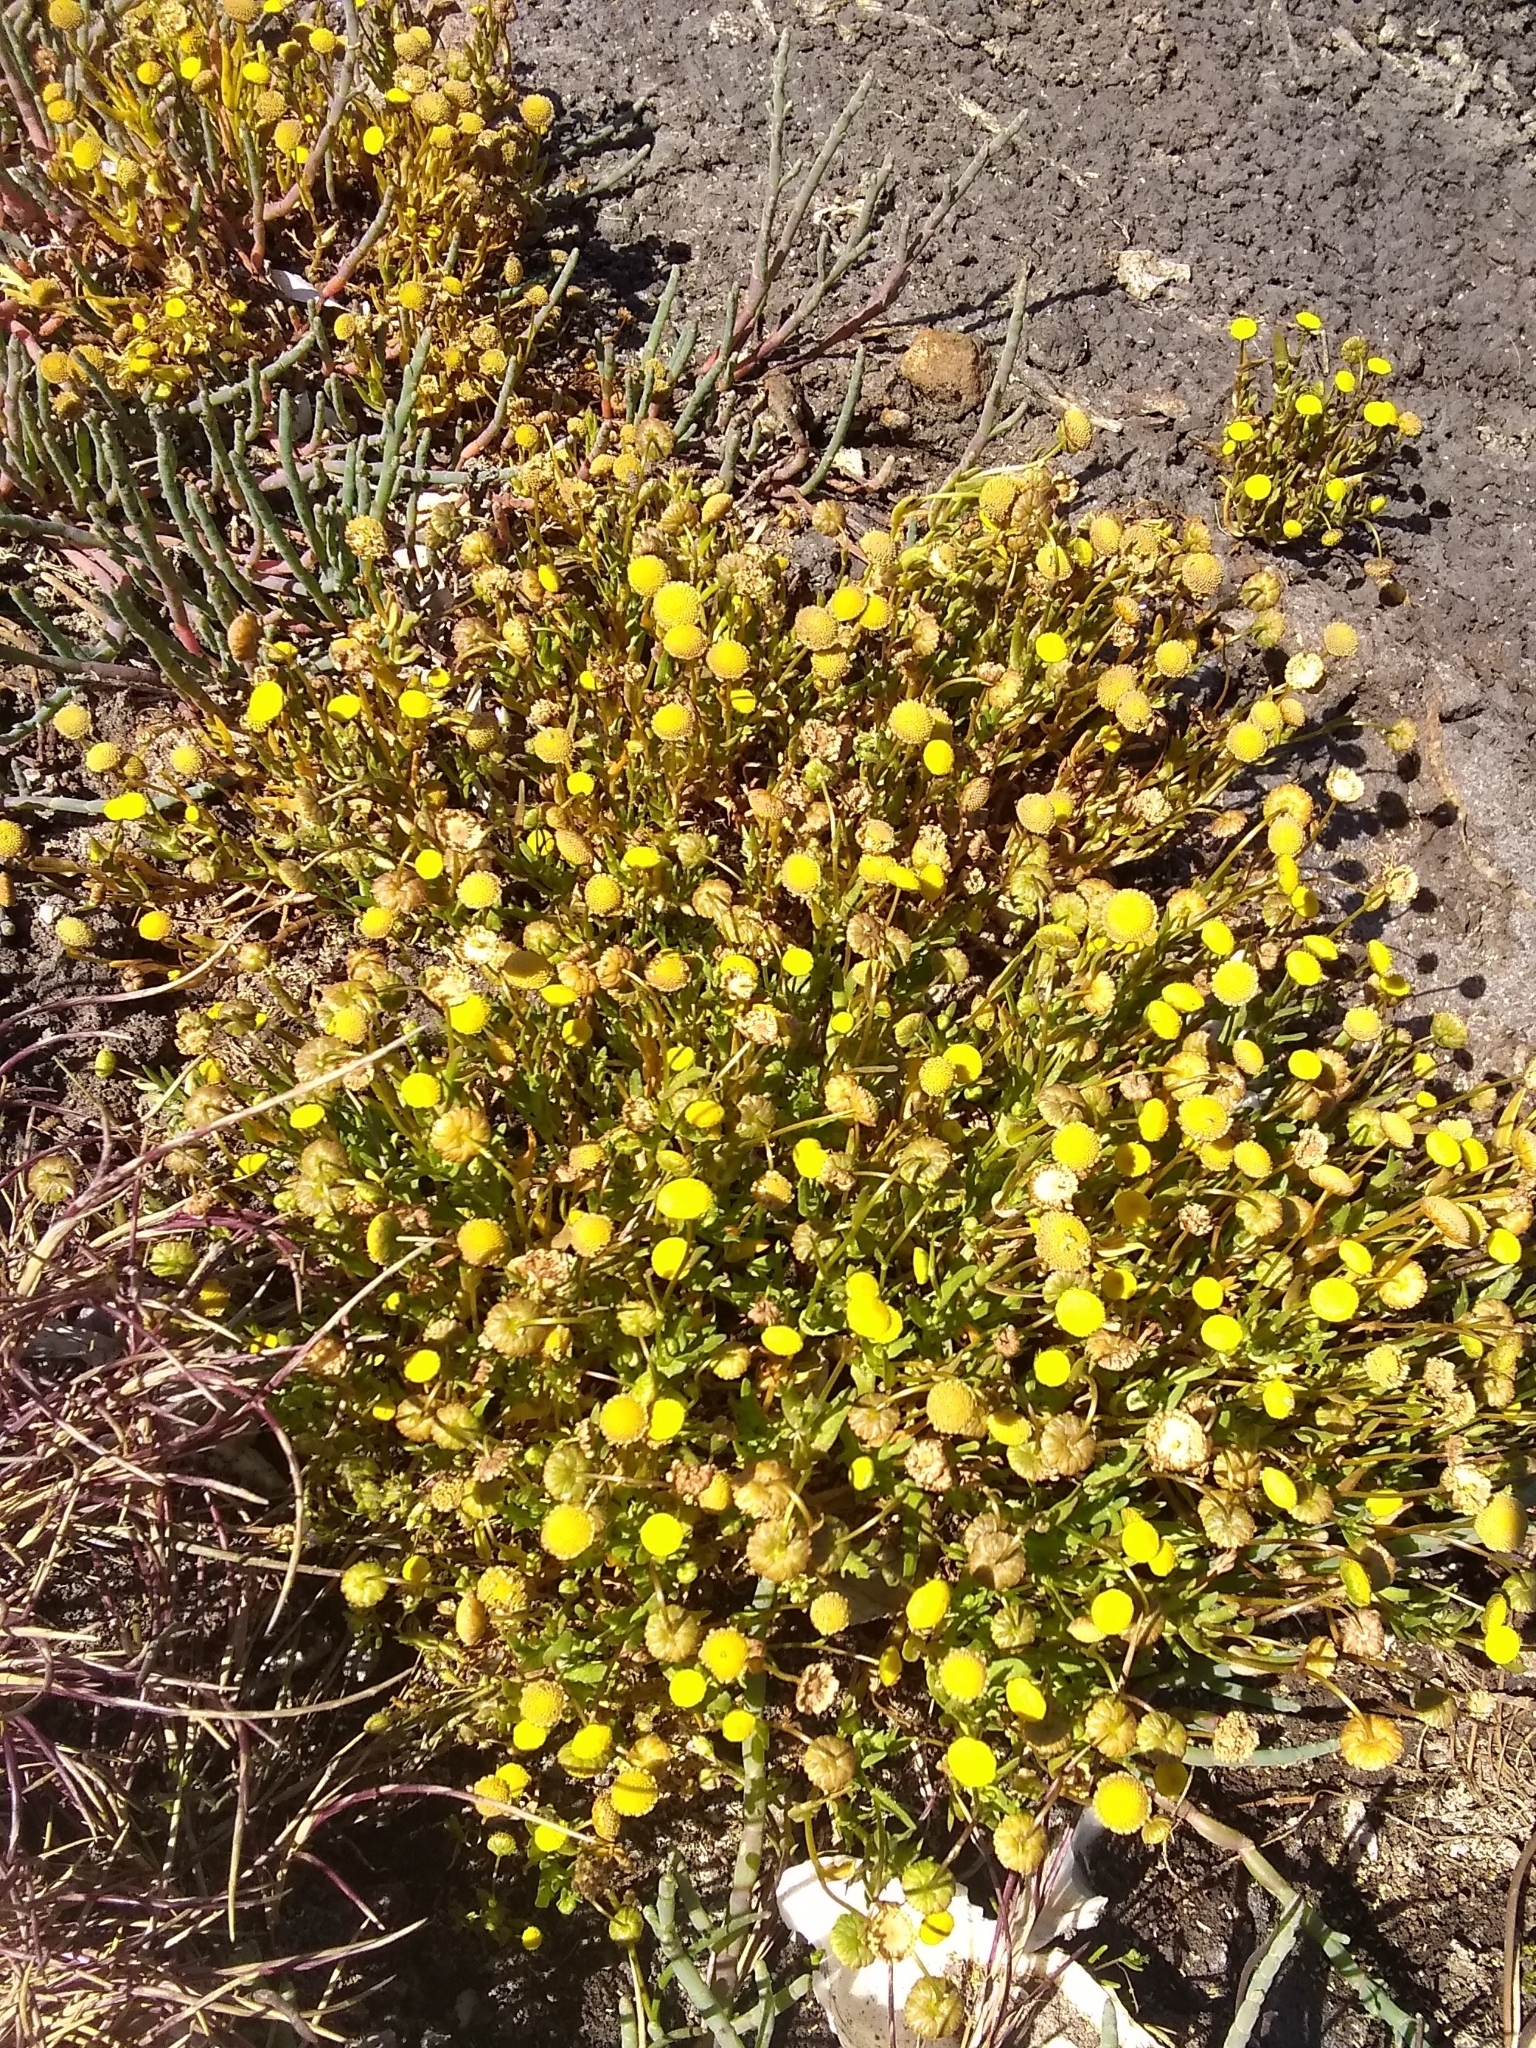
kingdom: Plantae
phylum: Tracheophyta
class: Magnoliopsida
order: Asterales
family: Asteraceae
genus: Cotula
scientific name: Cotula coronopifolia
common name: Buttonweed
